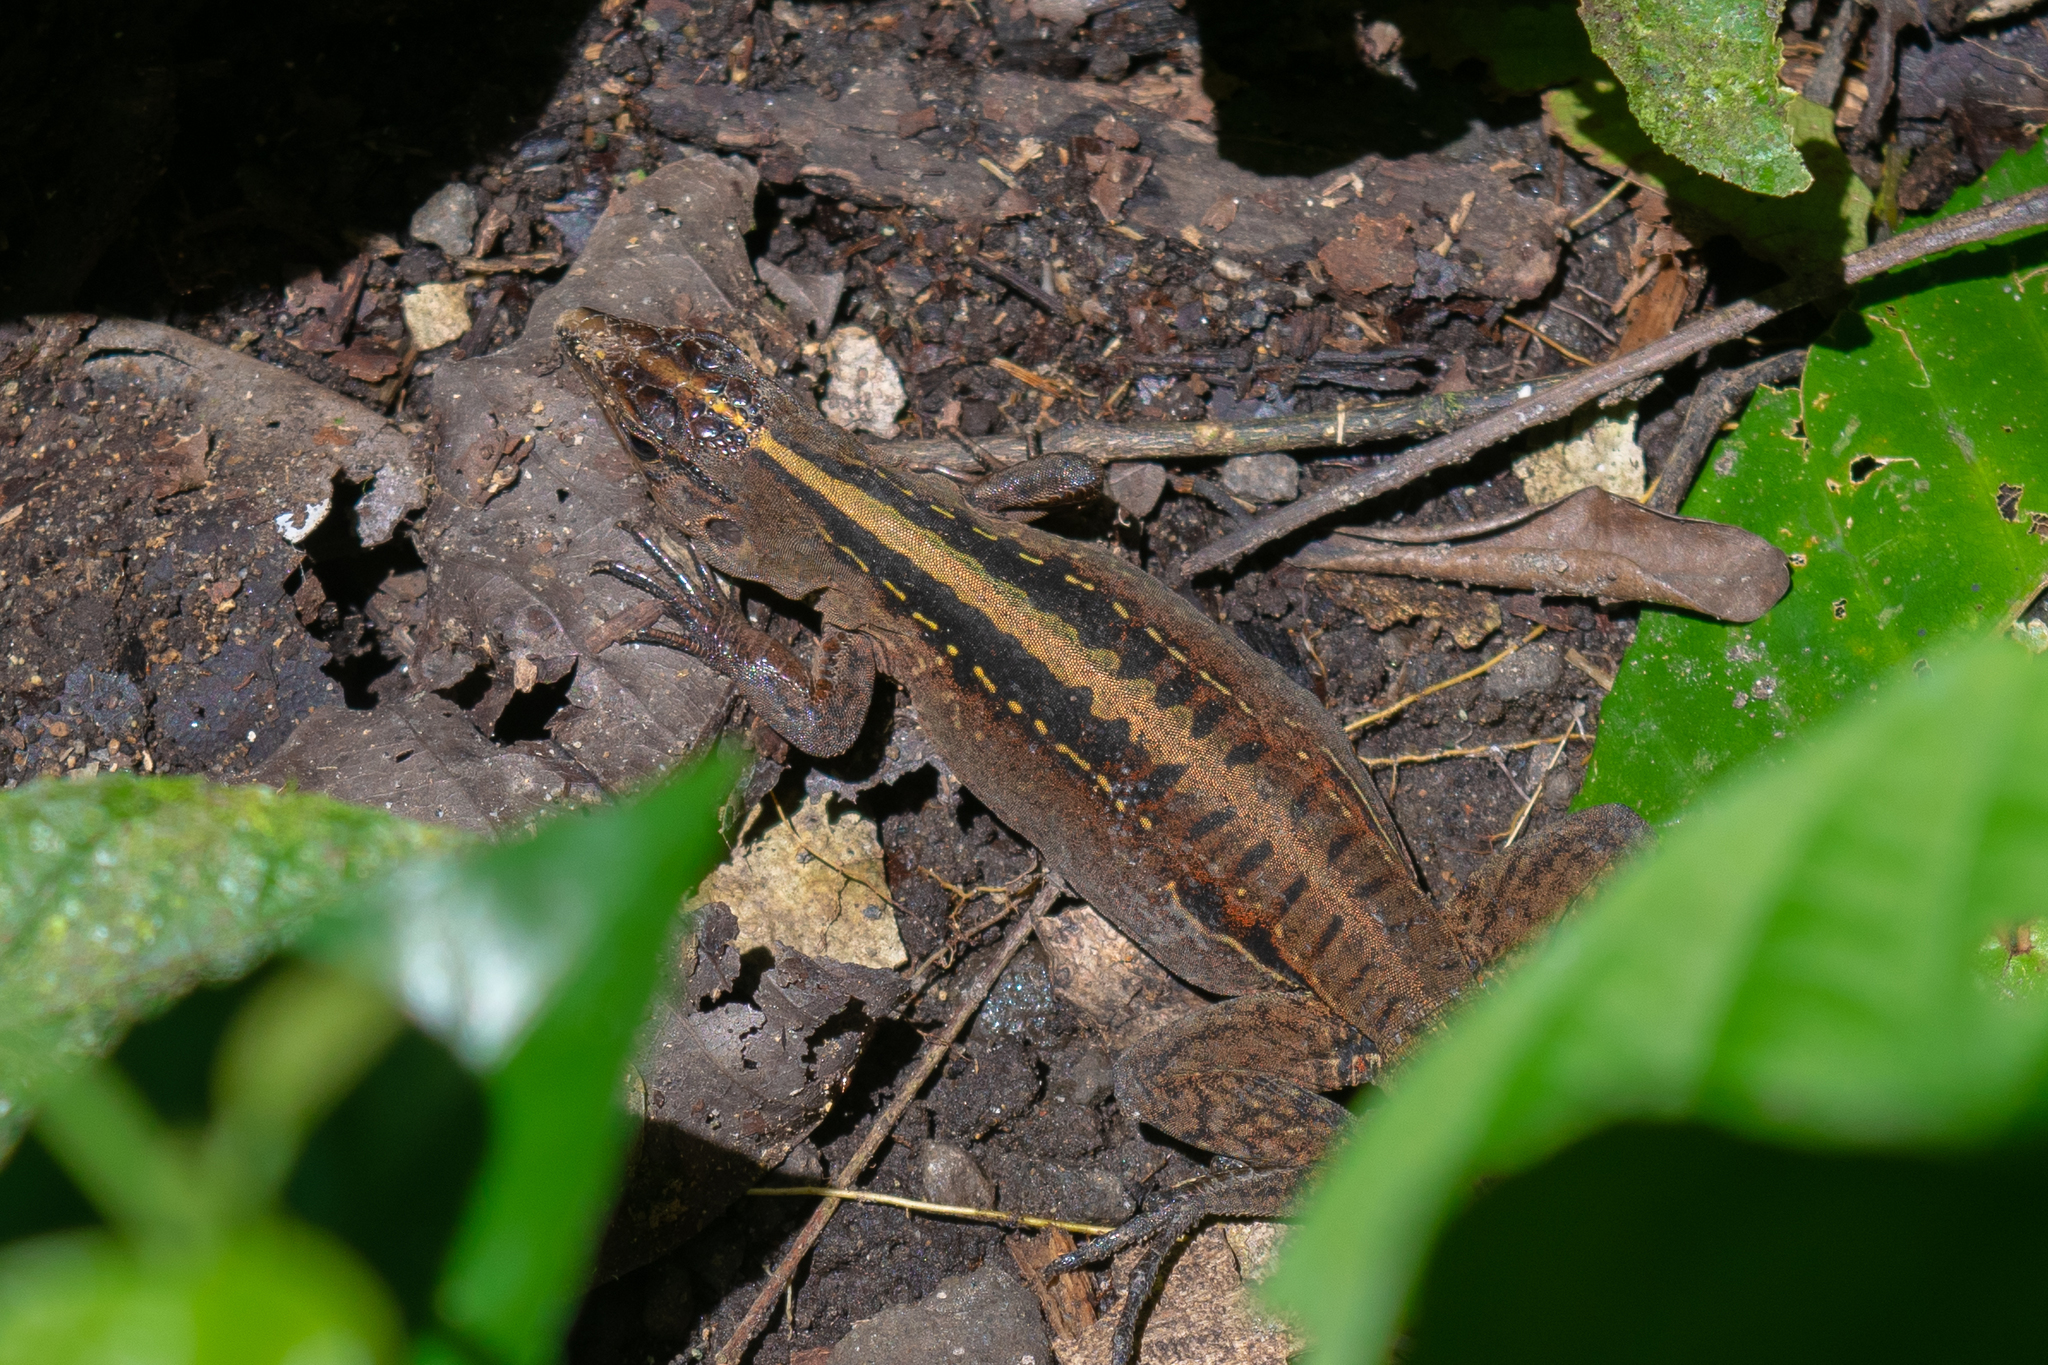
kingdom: Animalia
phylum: Chordata
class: Squamata
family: Teiidae
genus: Holcosus
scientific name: Holcosus festivus
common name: Middle american ameiva
